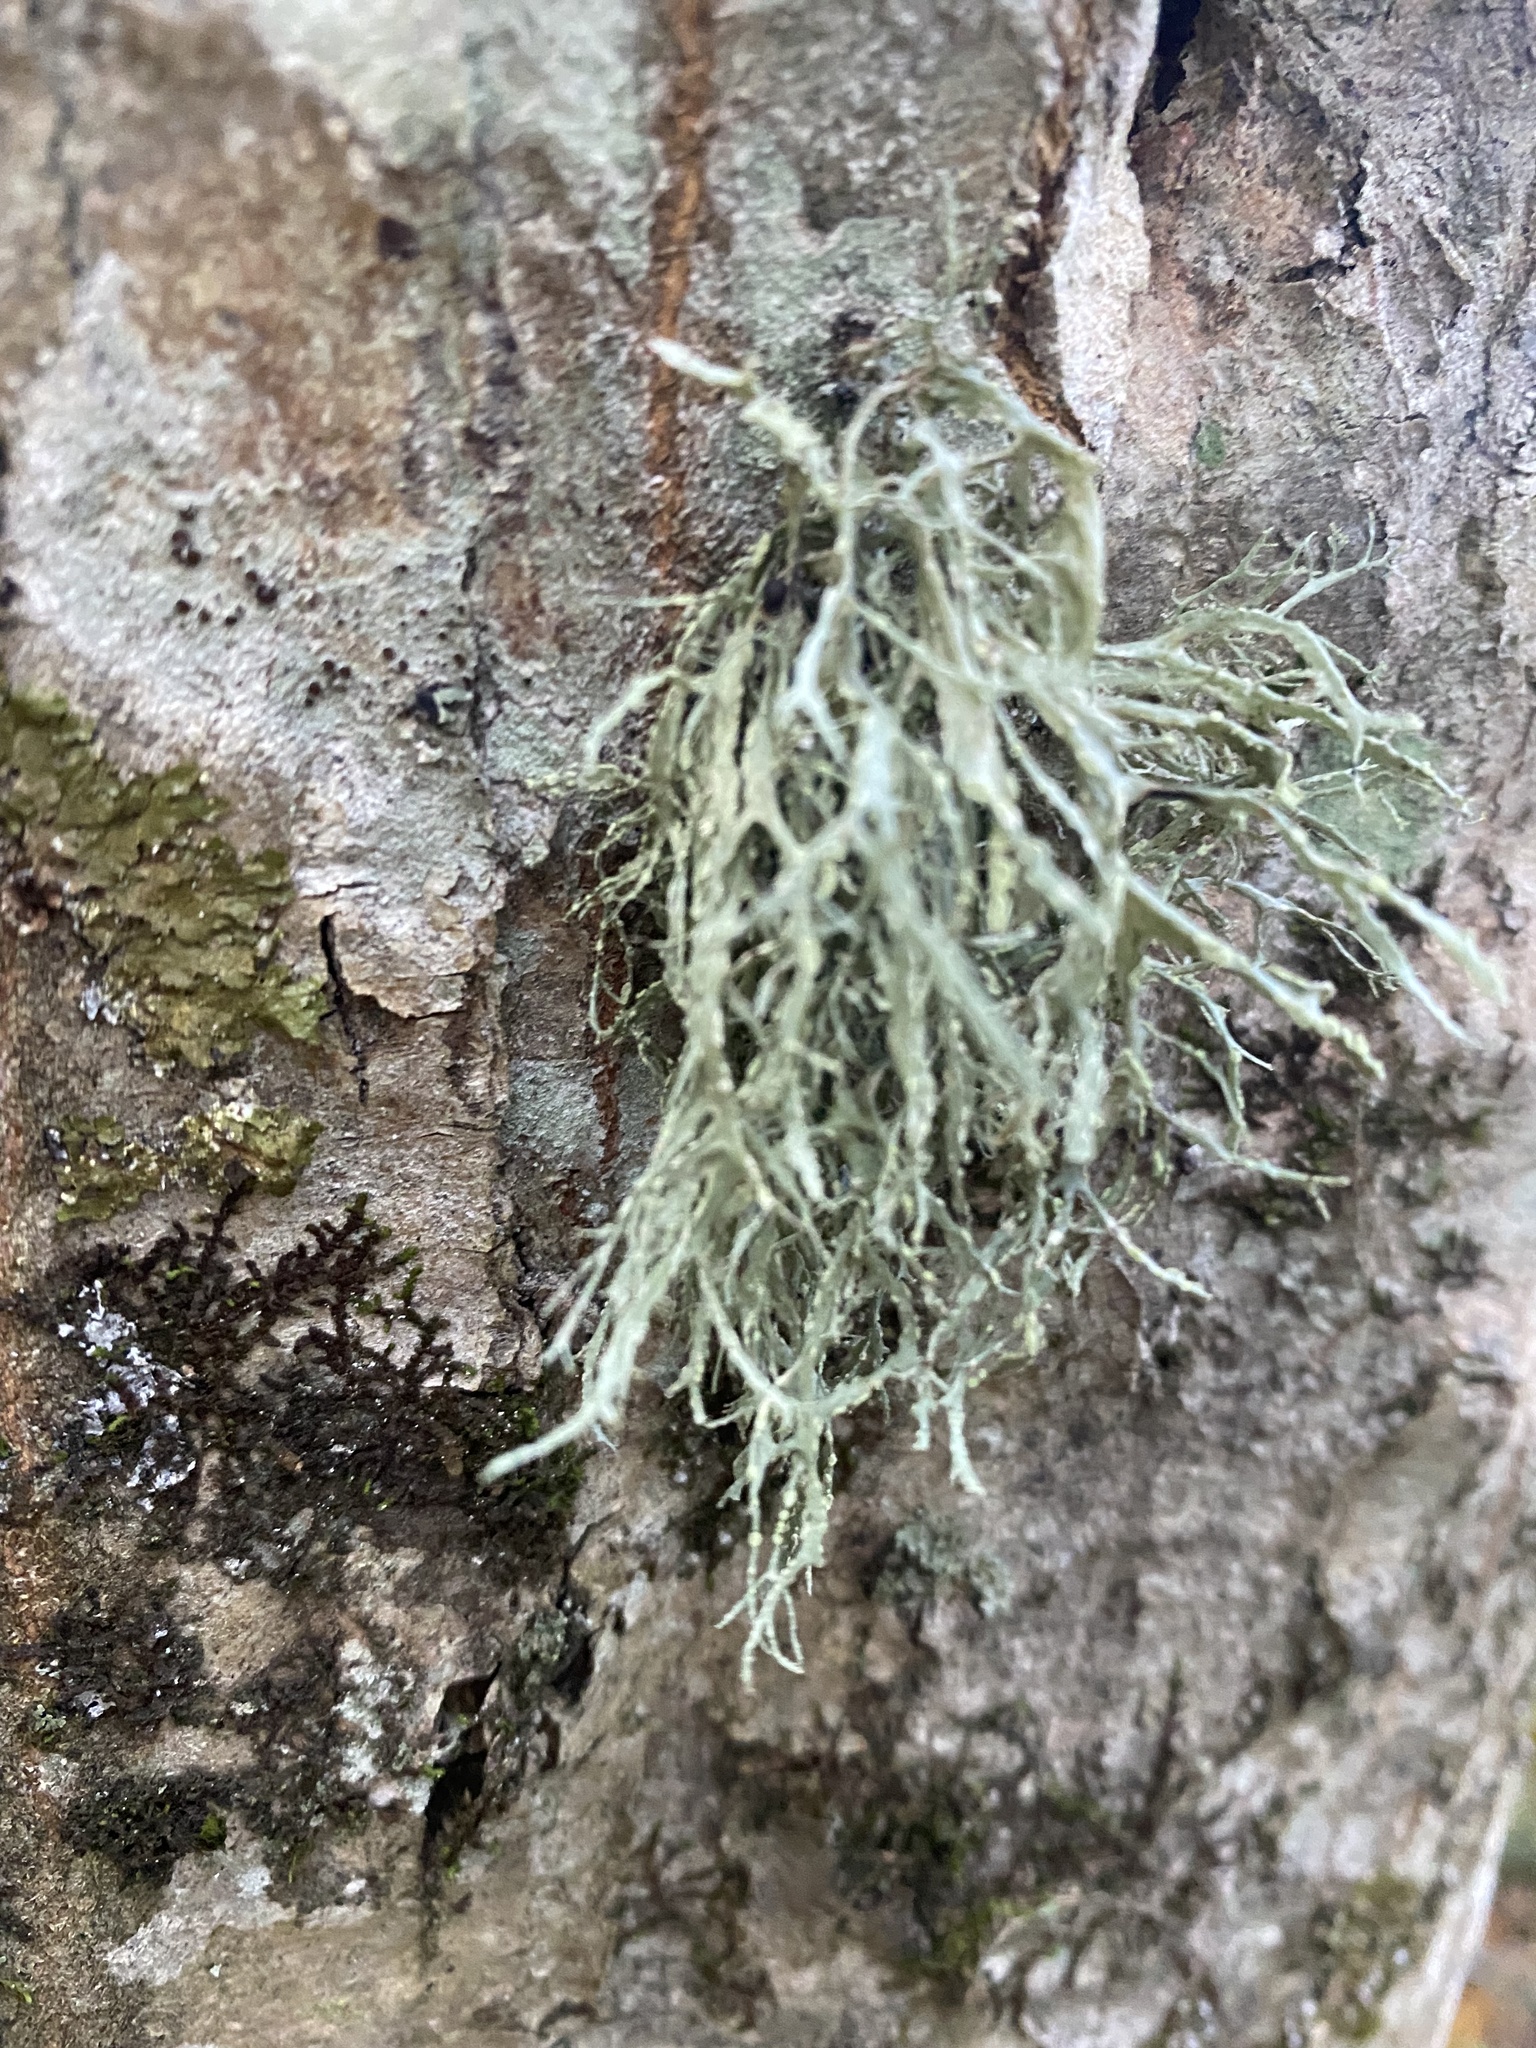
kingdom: Fungi
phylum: Ascomycota
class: Lecanoromycetes
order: Lecanorales
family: Ramalinaceae
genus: Ramalina
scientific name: Ramalina farinacea
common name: Farinose cartilage lichen
